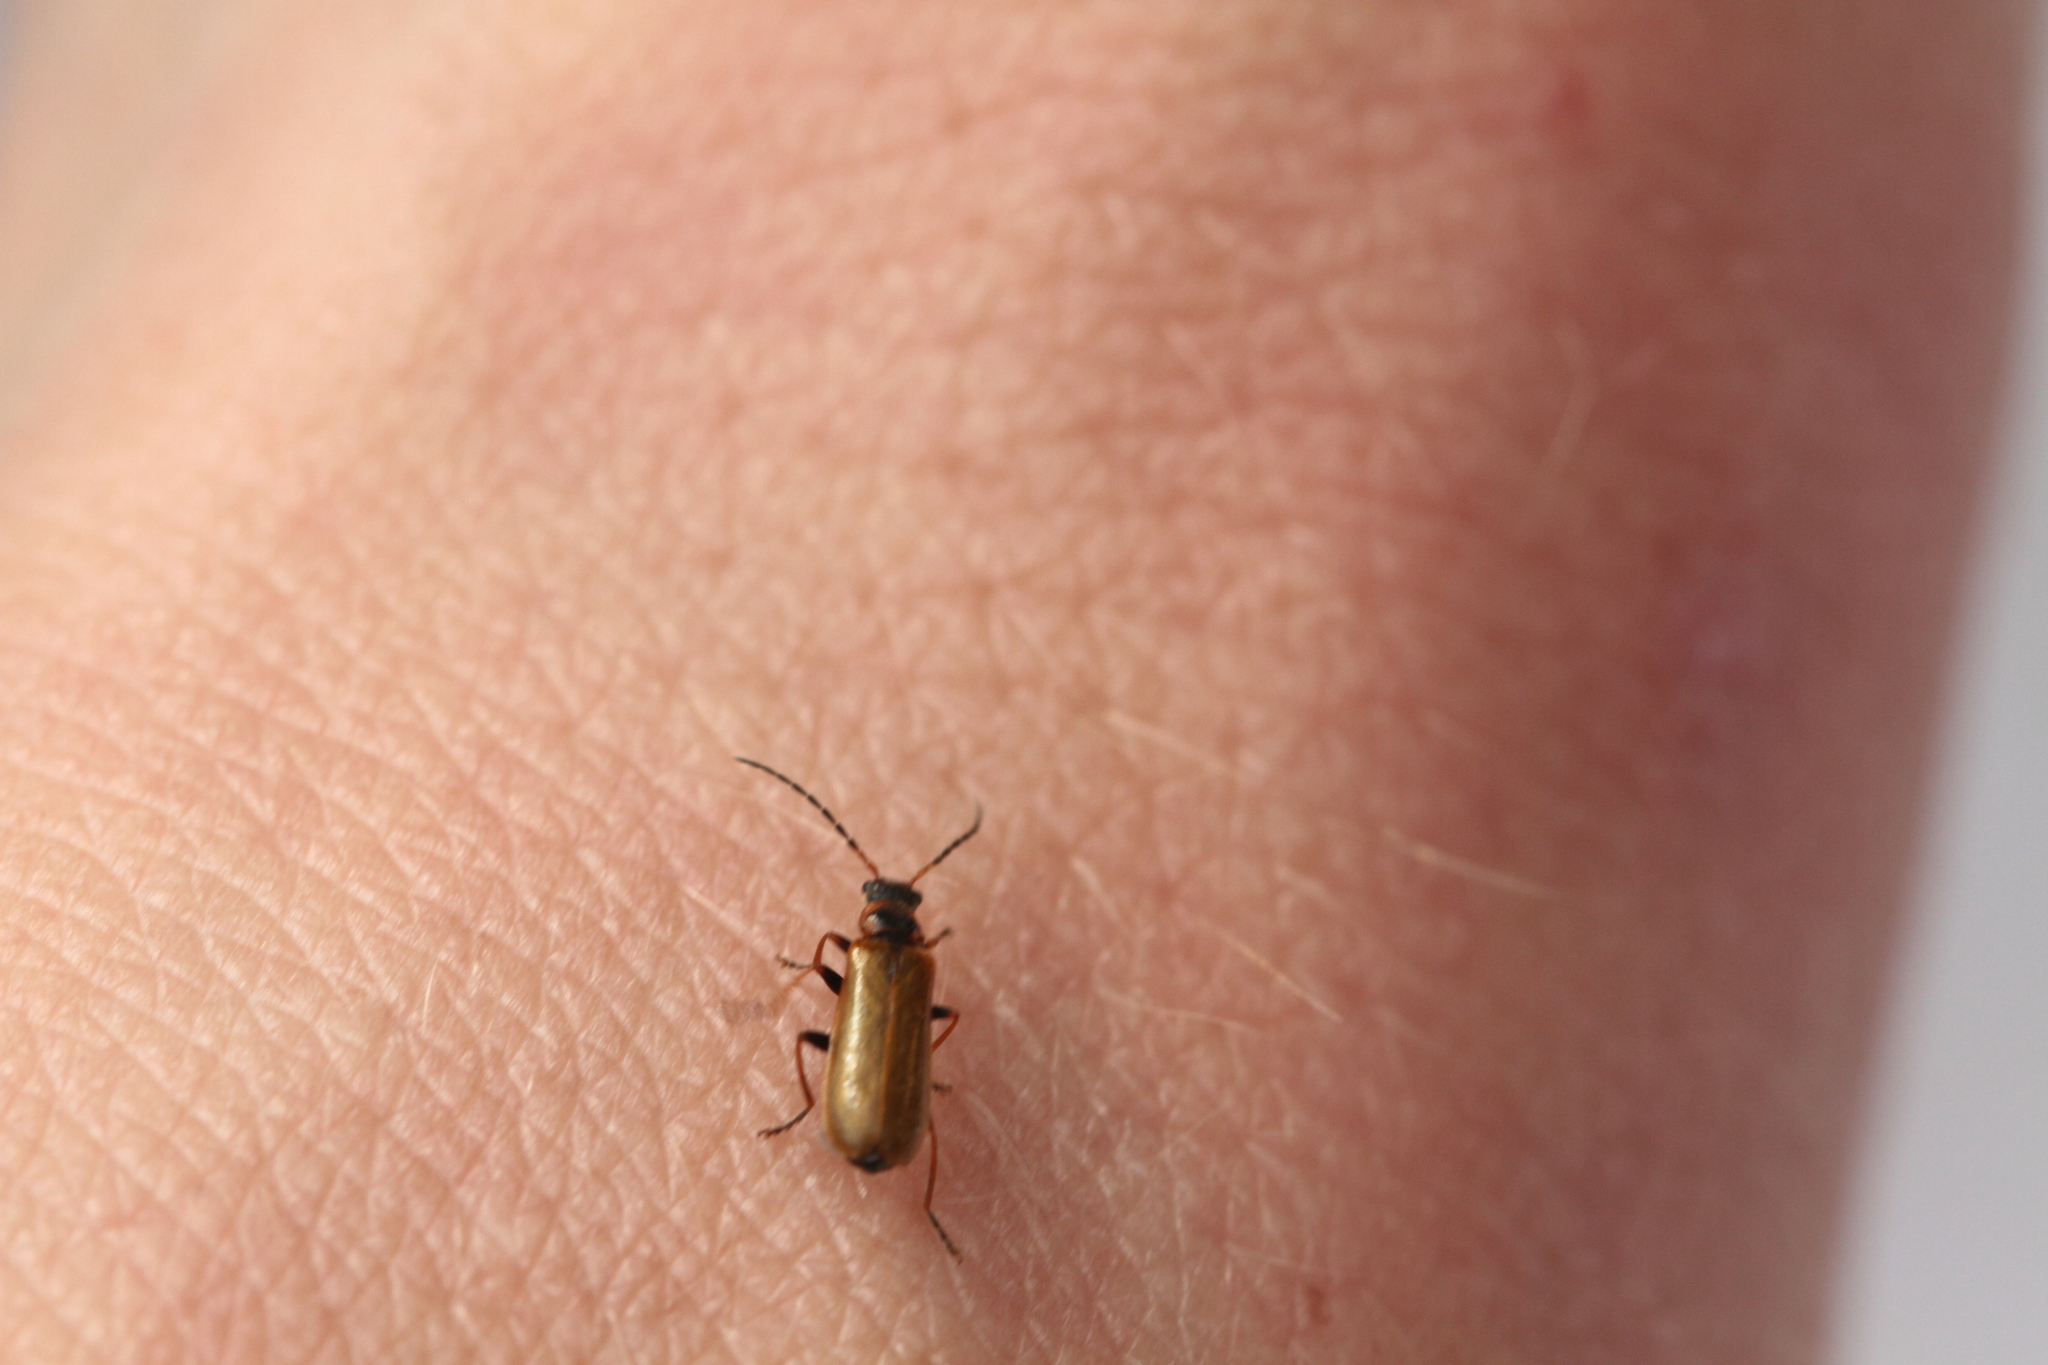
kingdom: Animalia
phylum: Arthropoda
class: Insecta
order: Coleoptera
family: Cantharidae
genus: Rhagonycha
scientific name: Rhagonycha nigriventris
